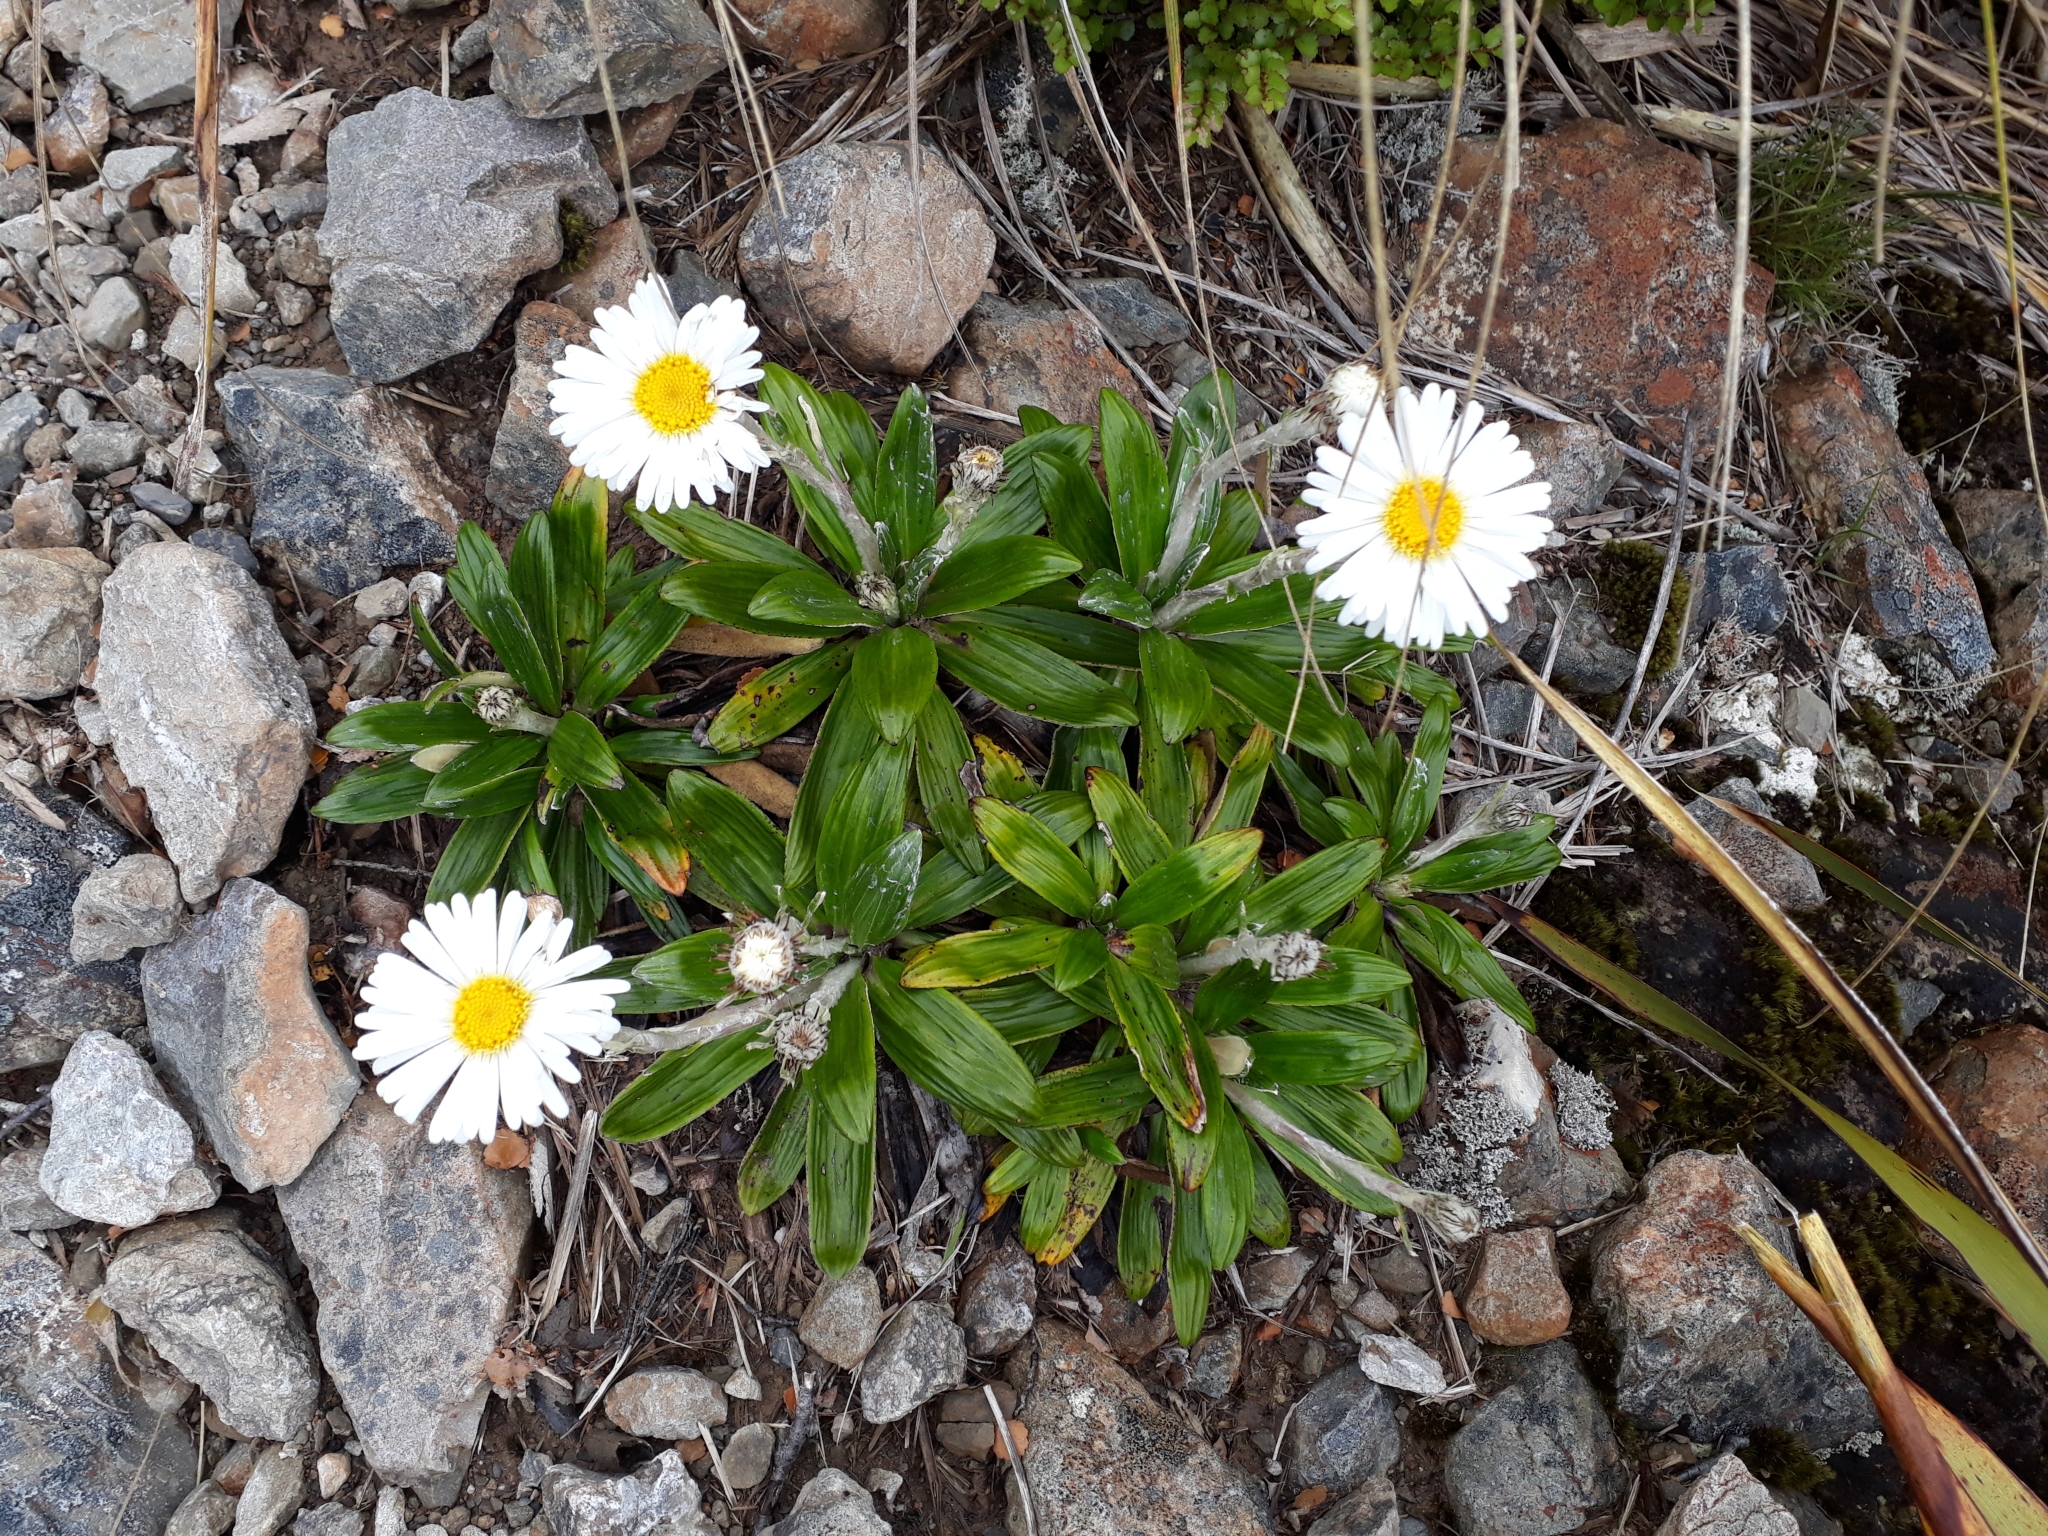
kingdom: Plantae
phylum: Tracheophyta
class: Magnoliopsida
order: Asterales
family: Asteraceae
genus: Celmisia
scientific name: Celmisia spectabilis
